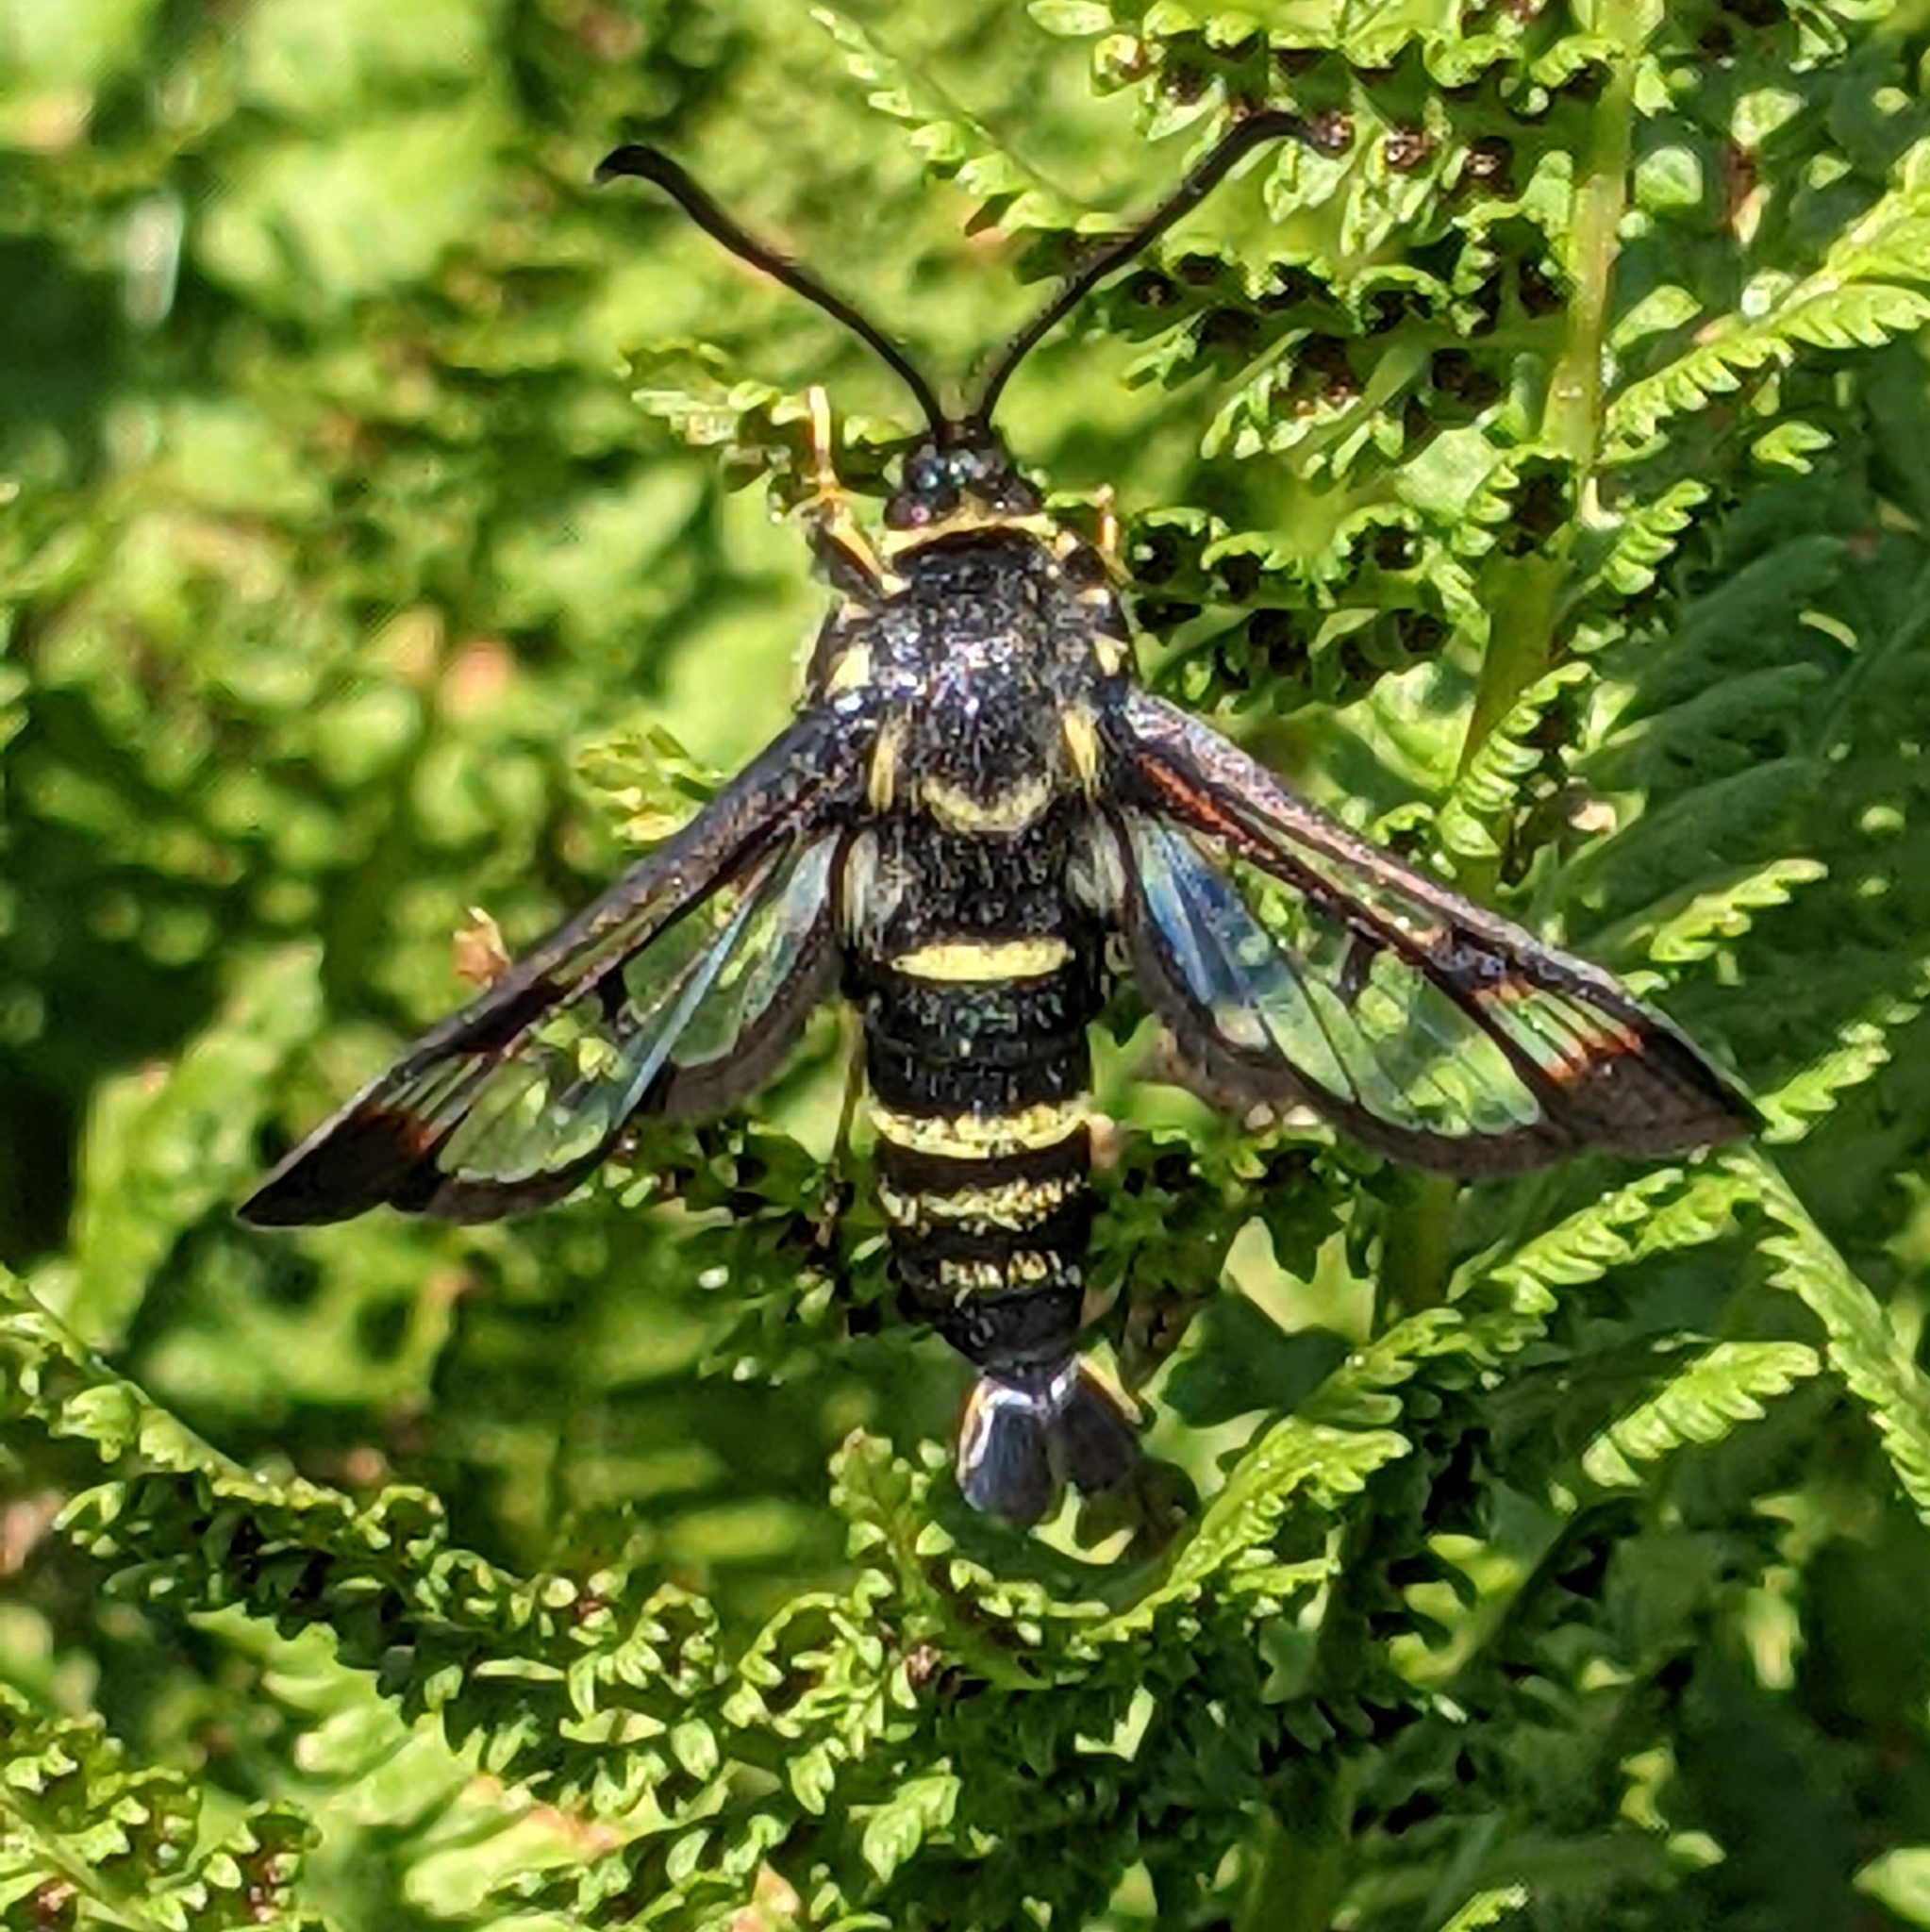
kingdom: Animalia
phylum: Arthropoda
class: Insecta
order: Lepidoptera
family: Sesiidae
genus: Albuna
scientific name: Albuna pyramidalis
